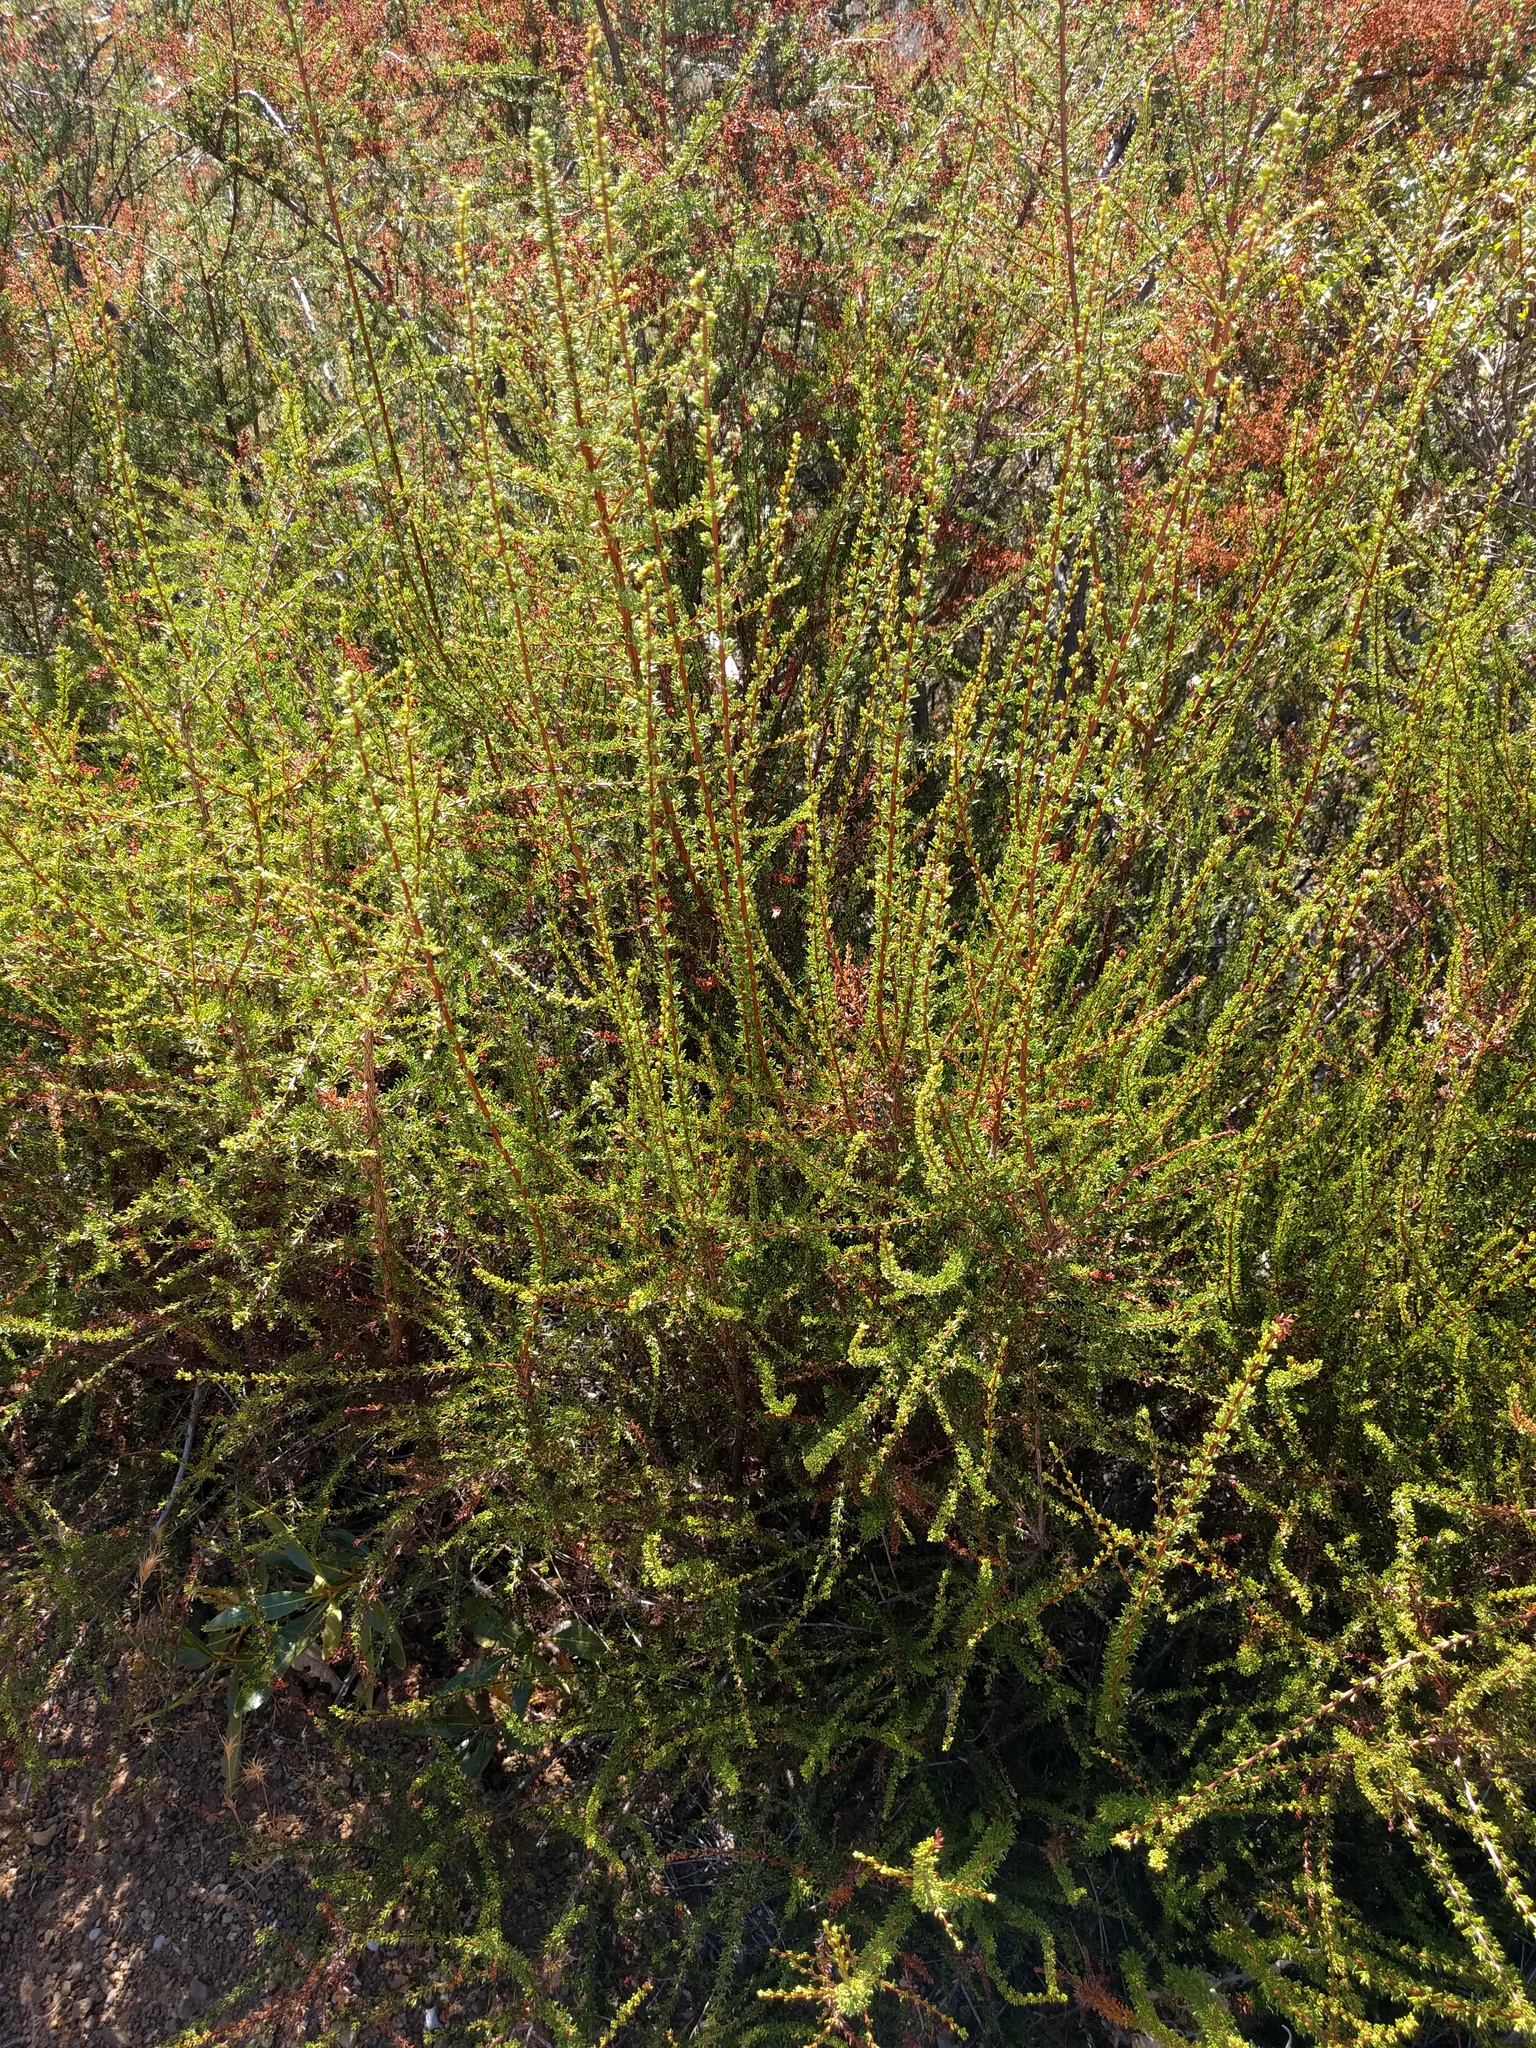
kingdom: Plantae
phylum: Tracheophyta
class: Magnoliopsida
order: Rosales
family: Rosaceae
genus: Adenostoma
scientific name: Adenostoma fasciculatum
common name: Chamise
